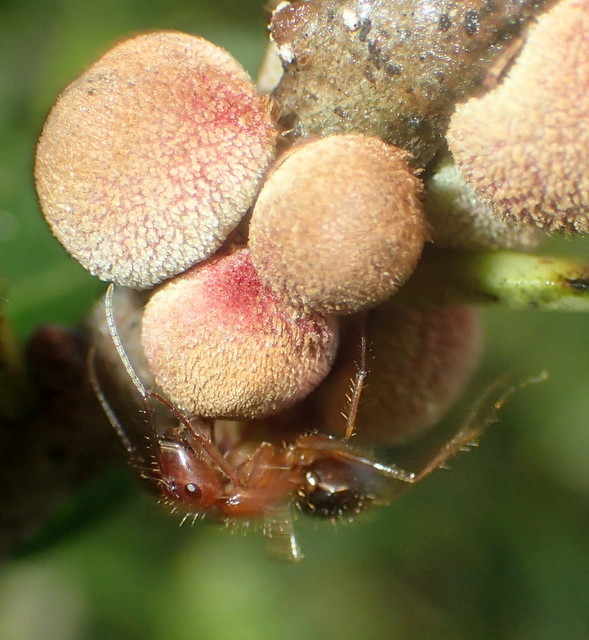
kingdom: Animalia
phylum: Arthropoda
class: Insecta
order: Hymenoptera
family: Formicidae
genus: Camponotus
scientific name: Camponotus floridanus
